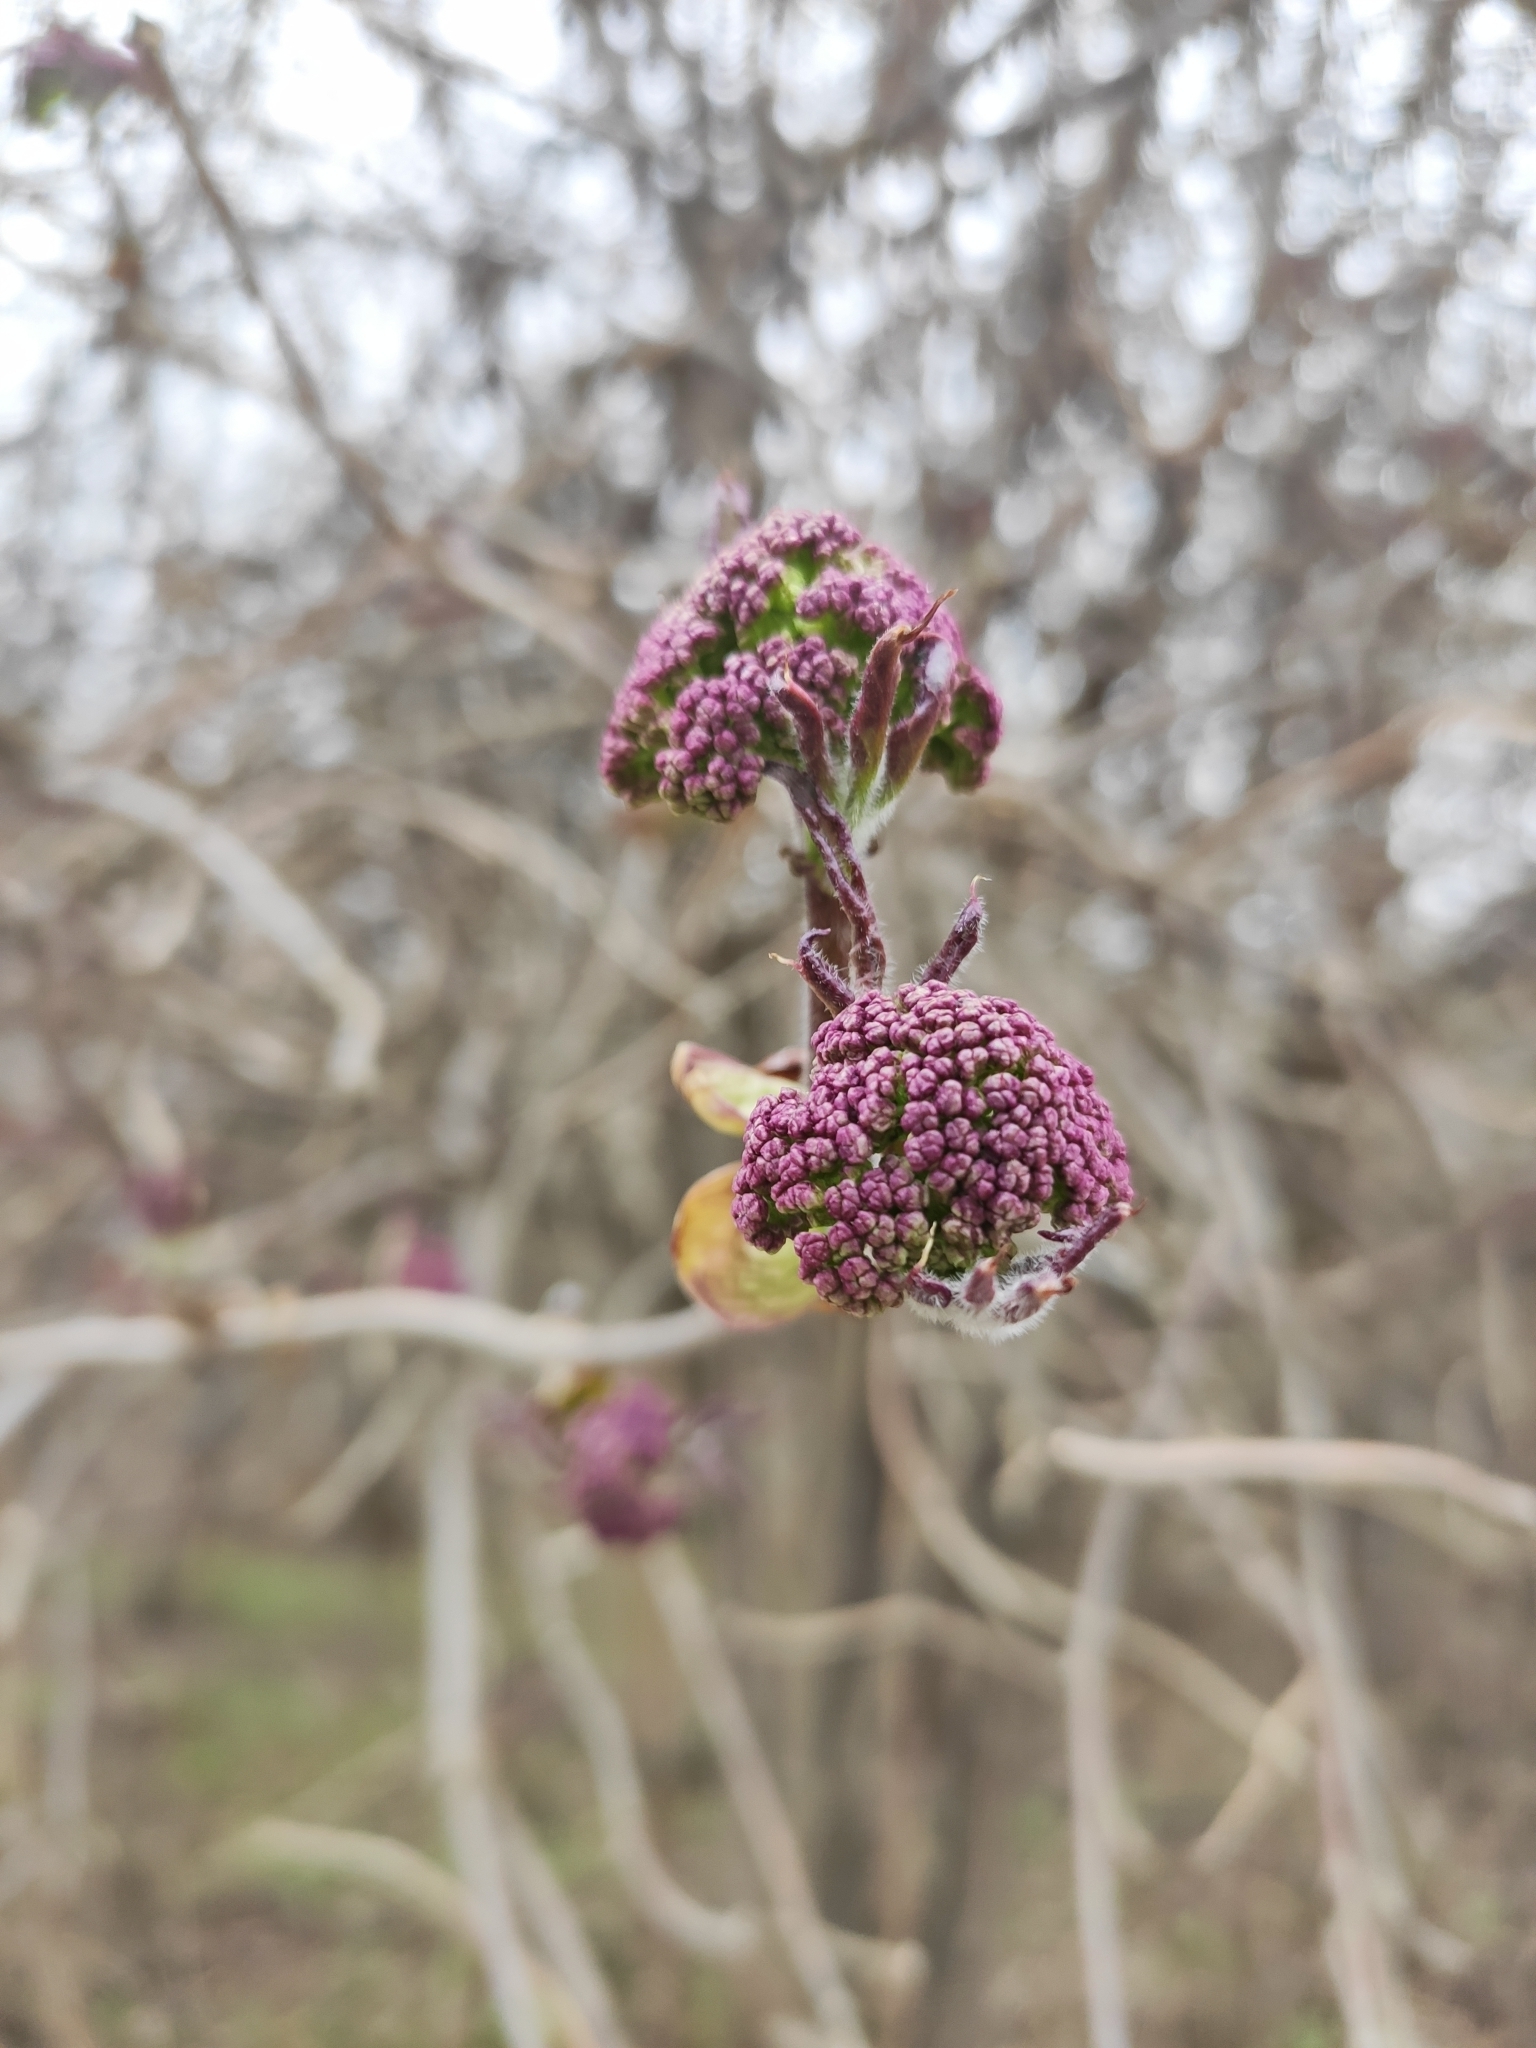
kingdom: Plantae
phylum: Tracheophyta
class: Magnoliopsida
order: Dipsacales
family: Viburnaceae
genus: Sambucus
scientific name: Sambucus sibirica
